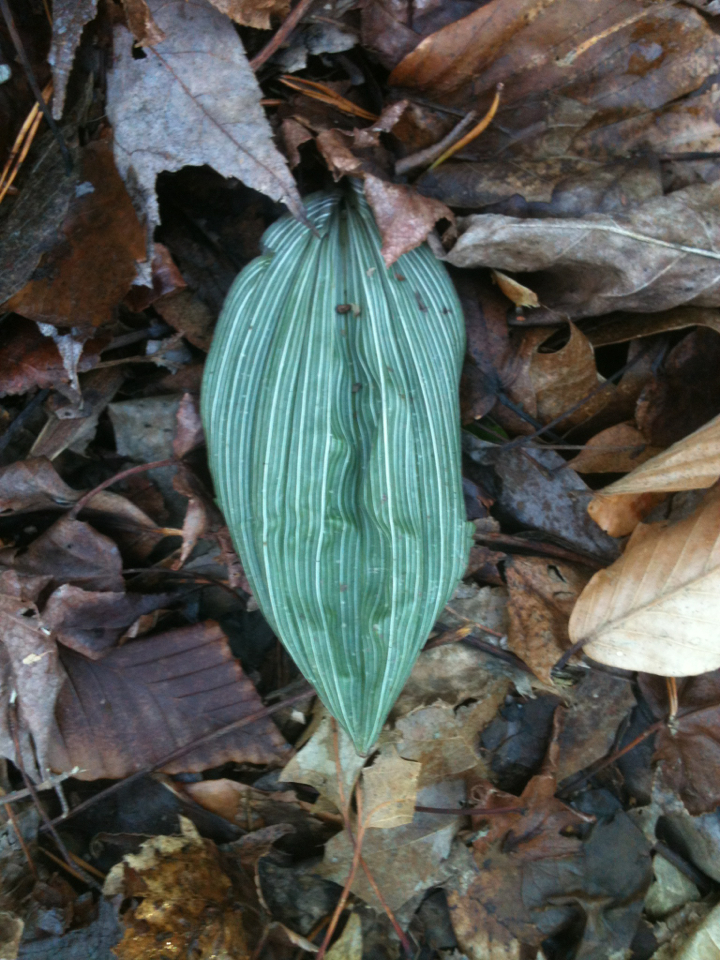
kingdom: Plantae
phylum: Tracheophyta
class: Liliopsida
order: Asparagales
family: Orchidaceae
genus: Aplectrum
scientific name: Aplectrum hyemale
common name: Adam-and-eve
